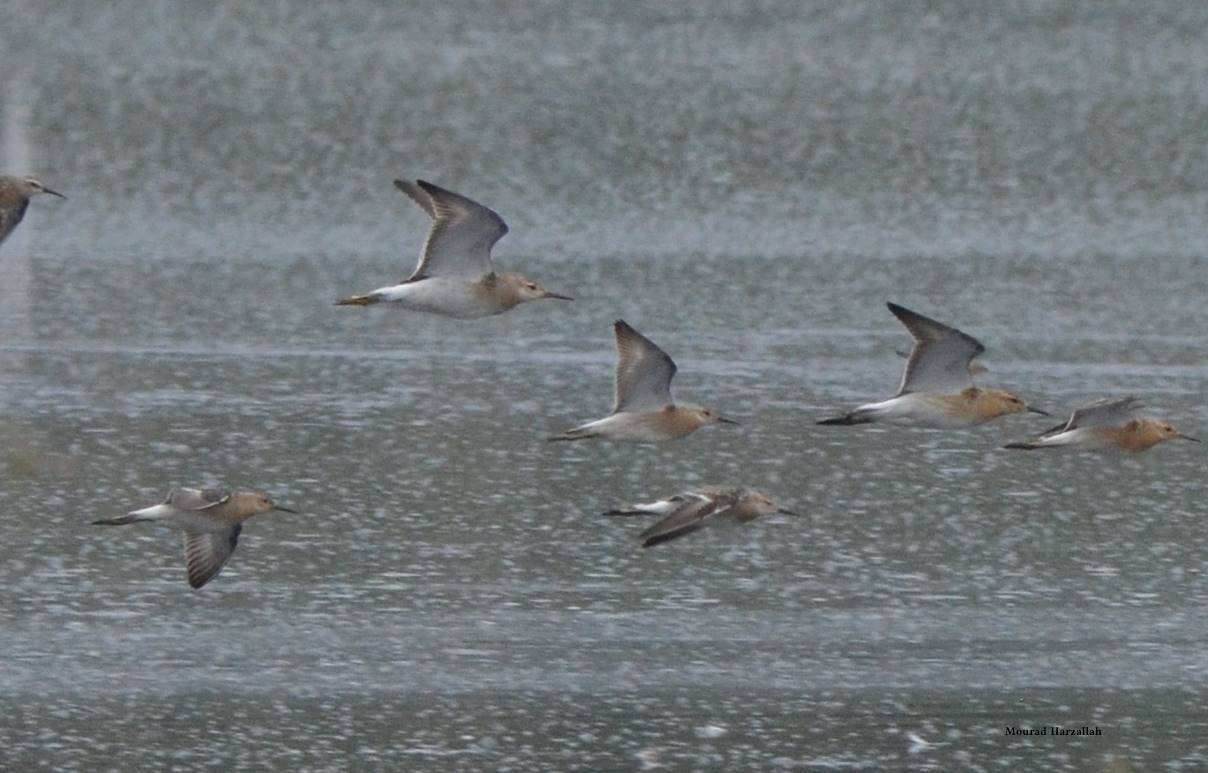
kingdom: Animalia
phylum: Chordata
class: Aves
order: Charadriiformes
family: Scolopacidae
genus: Calidris
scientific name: Calidris pugnax
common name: Ruff
